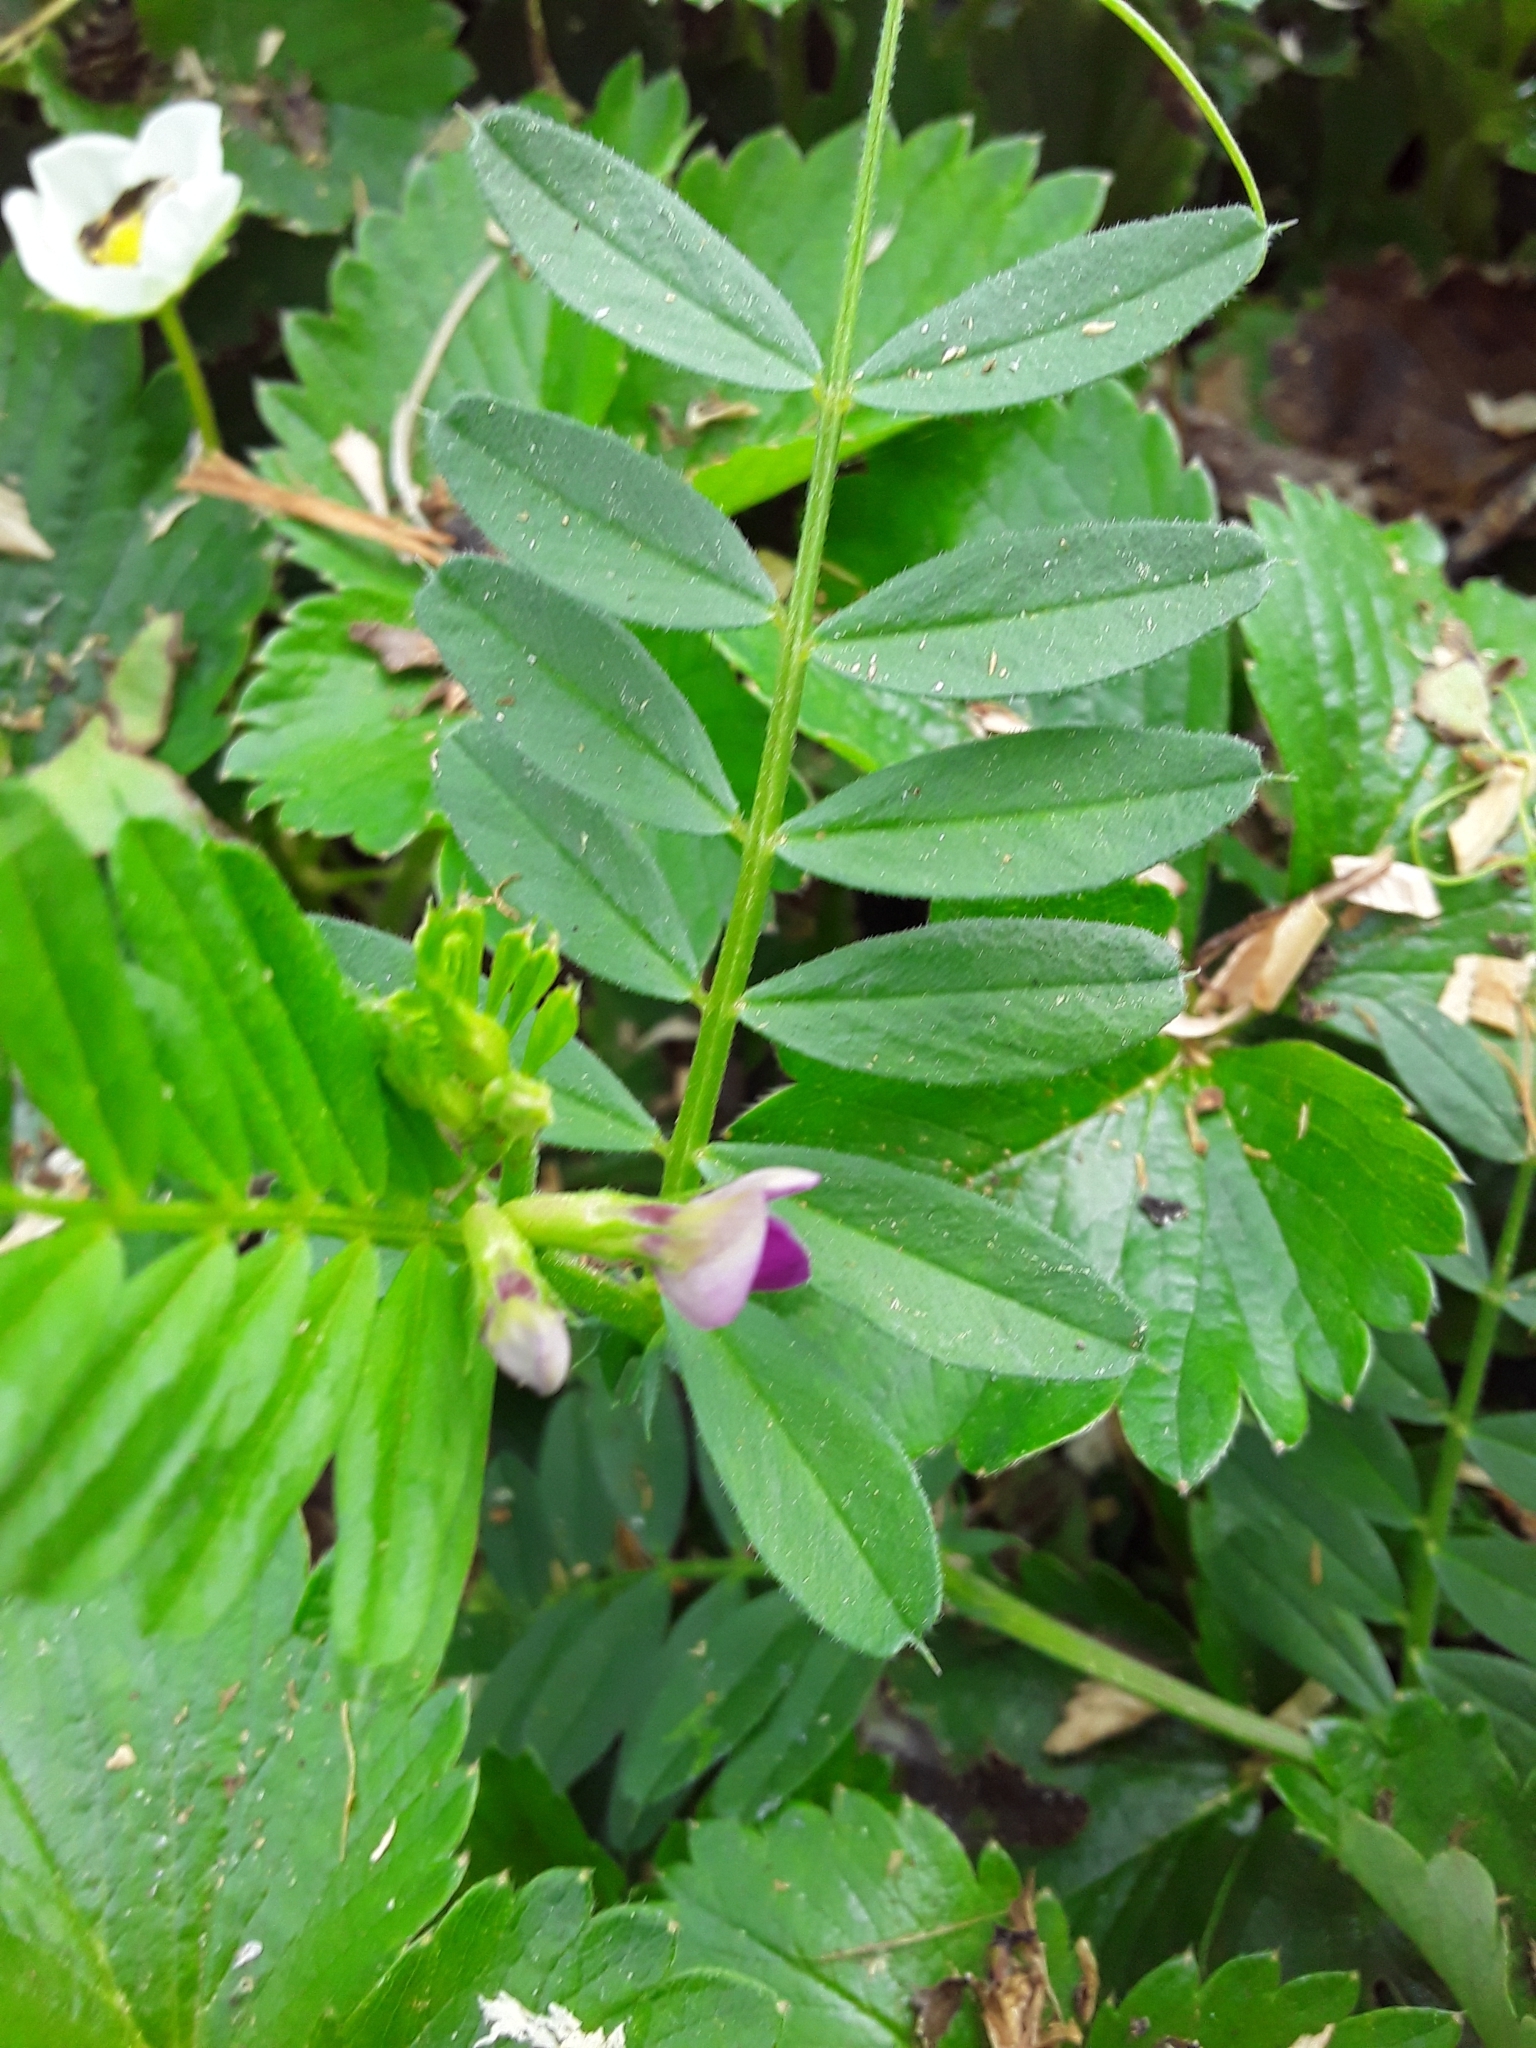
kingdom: Plantae
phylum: Tracheophyta
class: Magnoliopsida
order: Fabales
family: Fabaceae
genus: Vicia
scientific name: Vicia sativa
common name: Garden vetch
